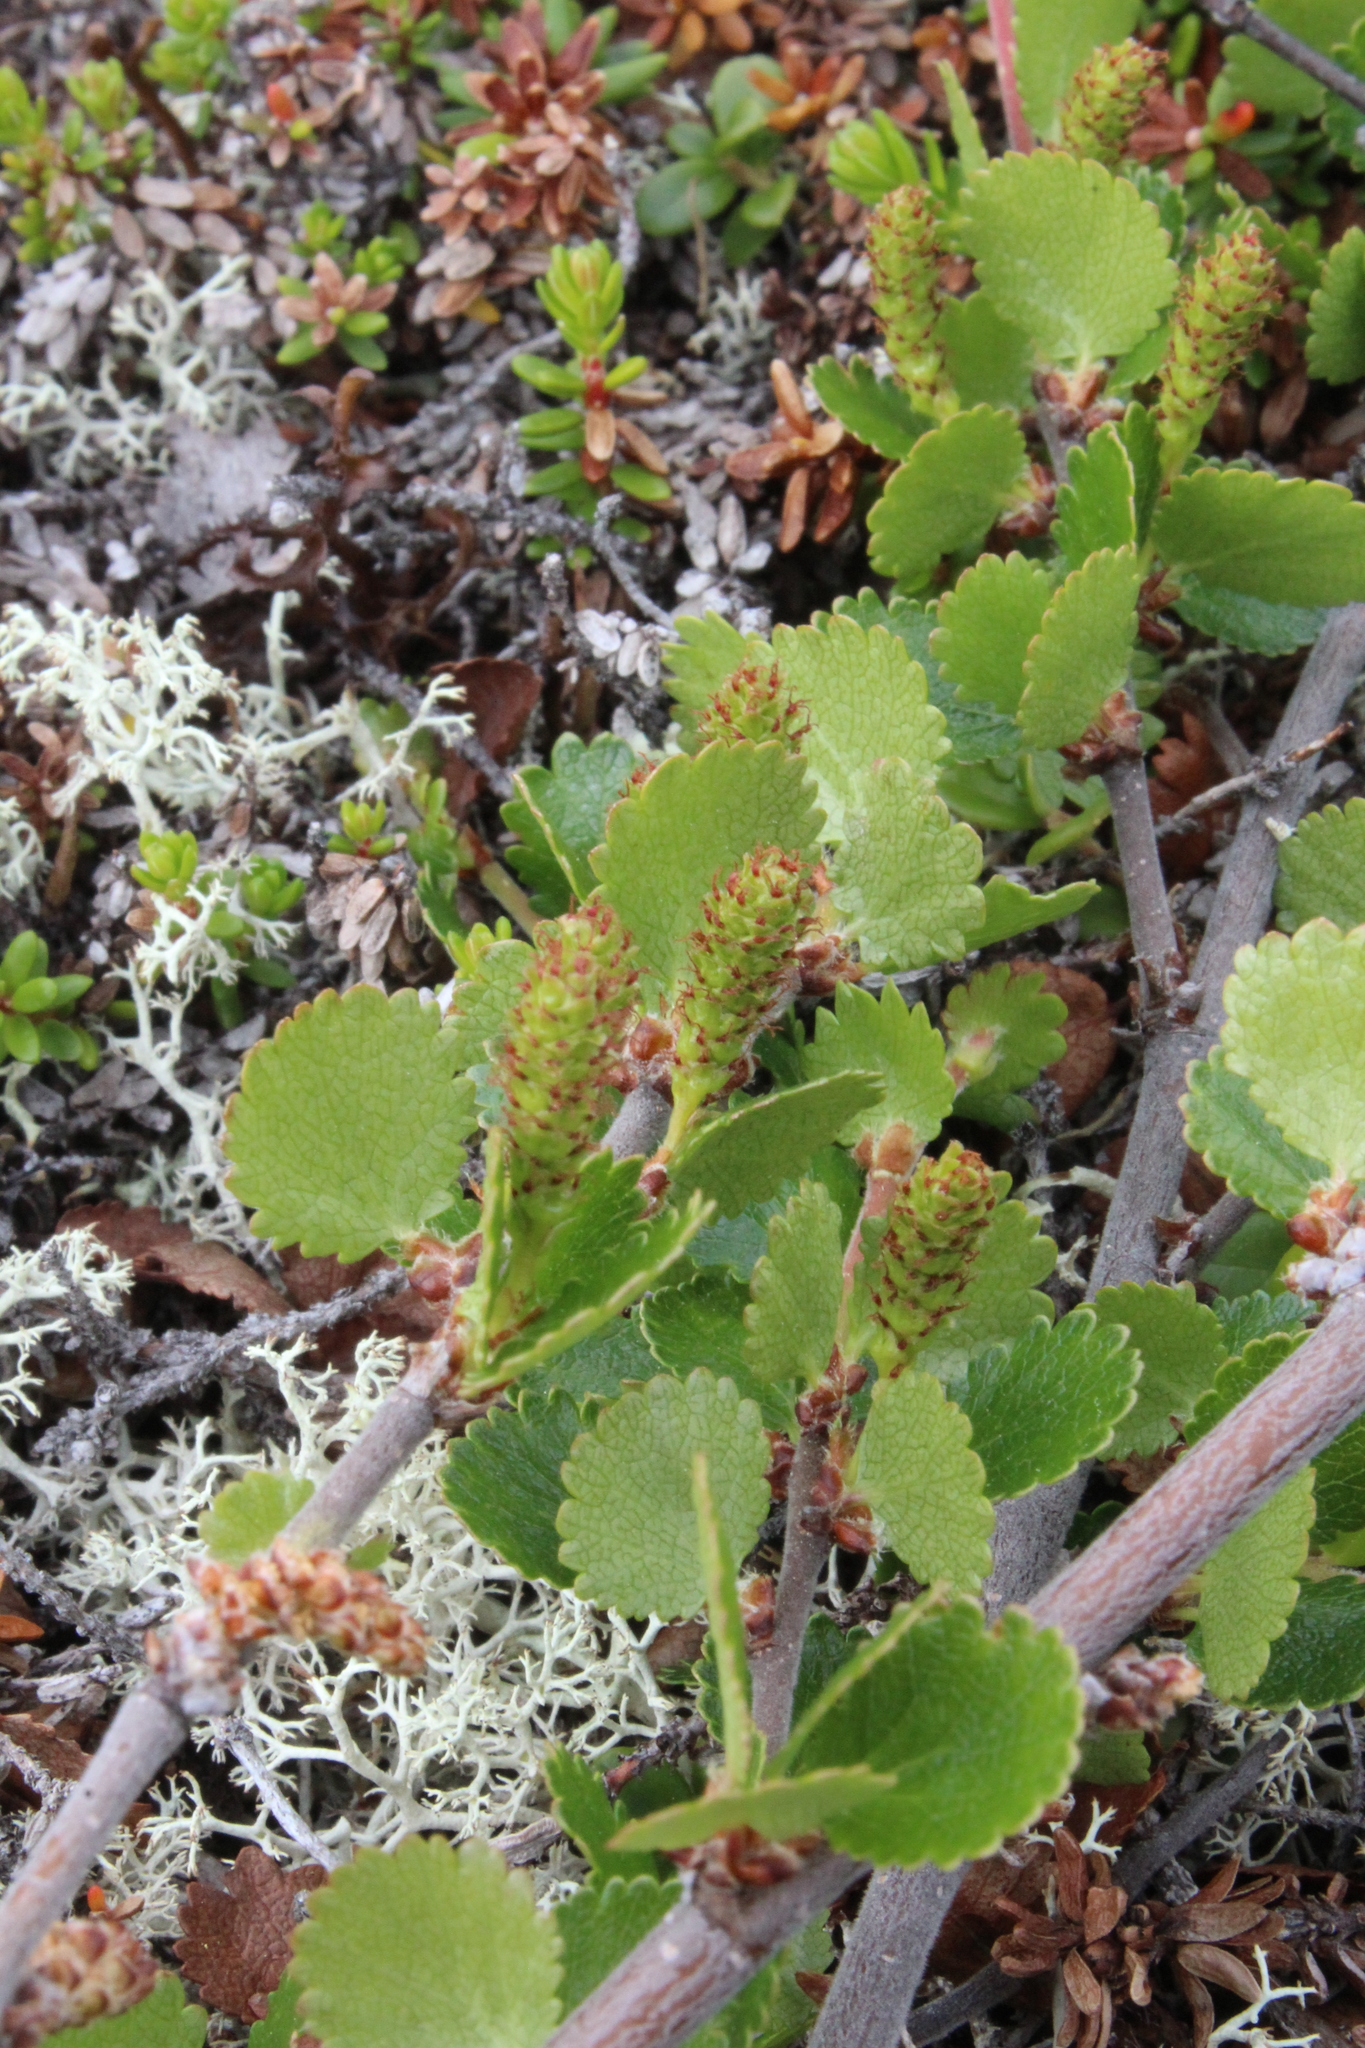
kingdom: Plantae
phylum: Tracheophyta
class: Magnoliopsida
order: Fagales
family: Betulaceae
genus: Betula
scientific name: Betula nana
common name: Arctic dwarf birch
